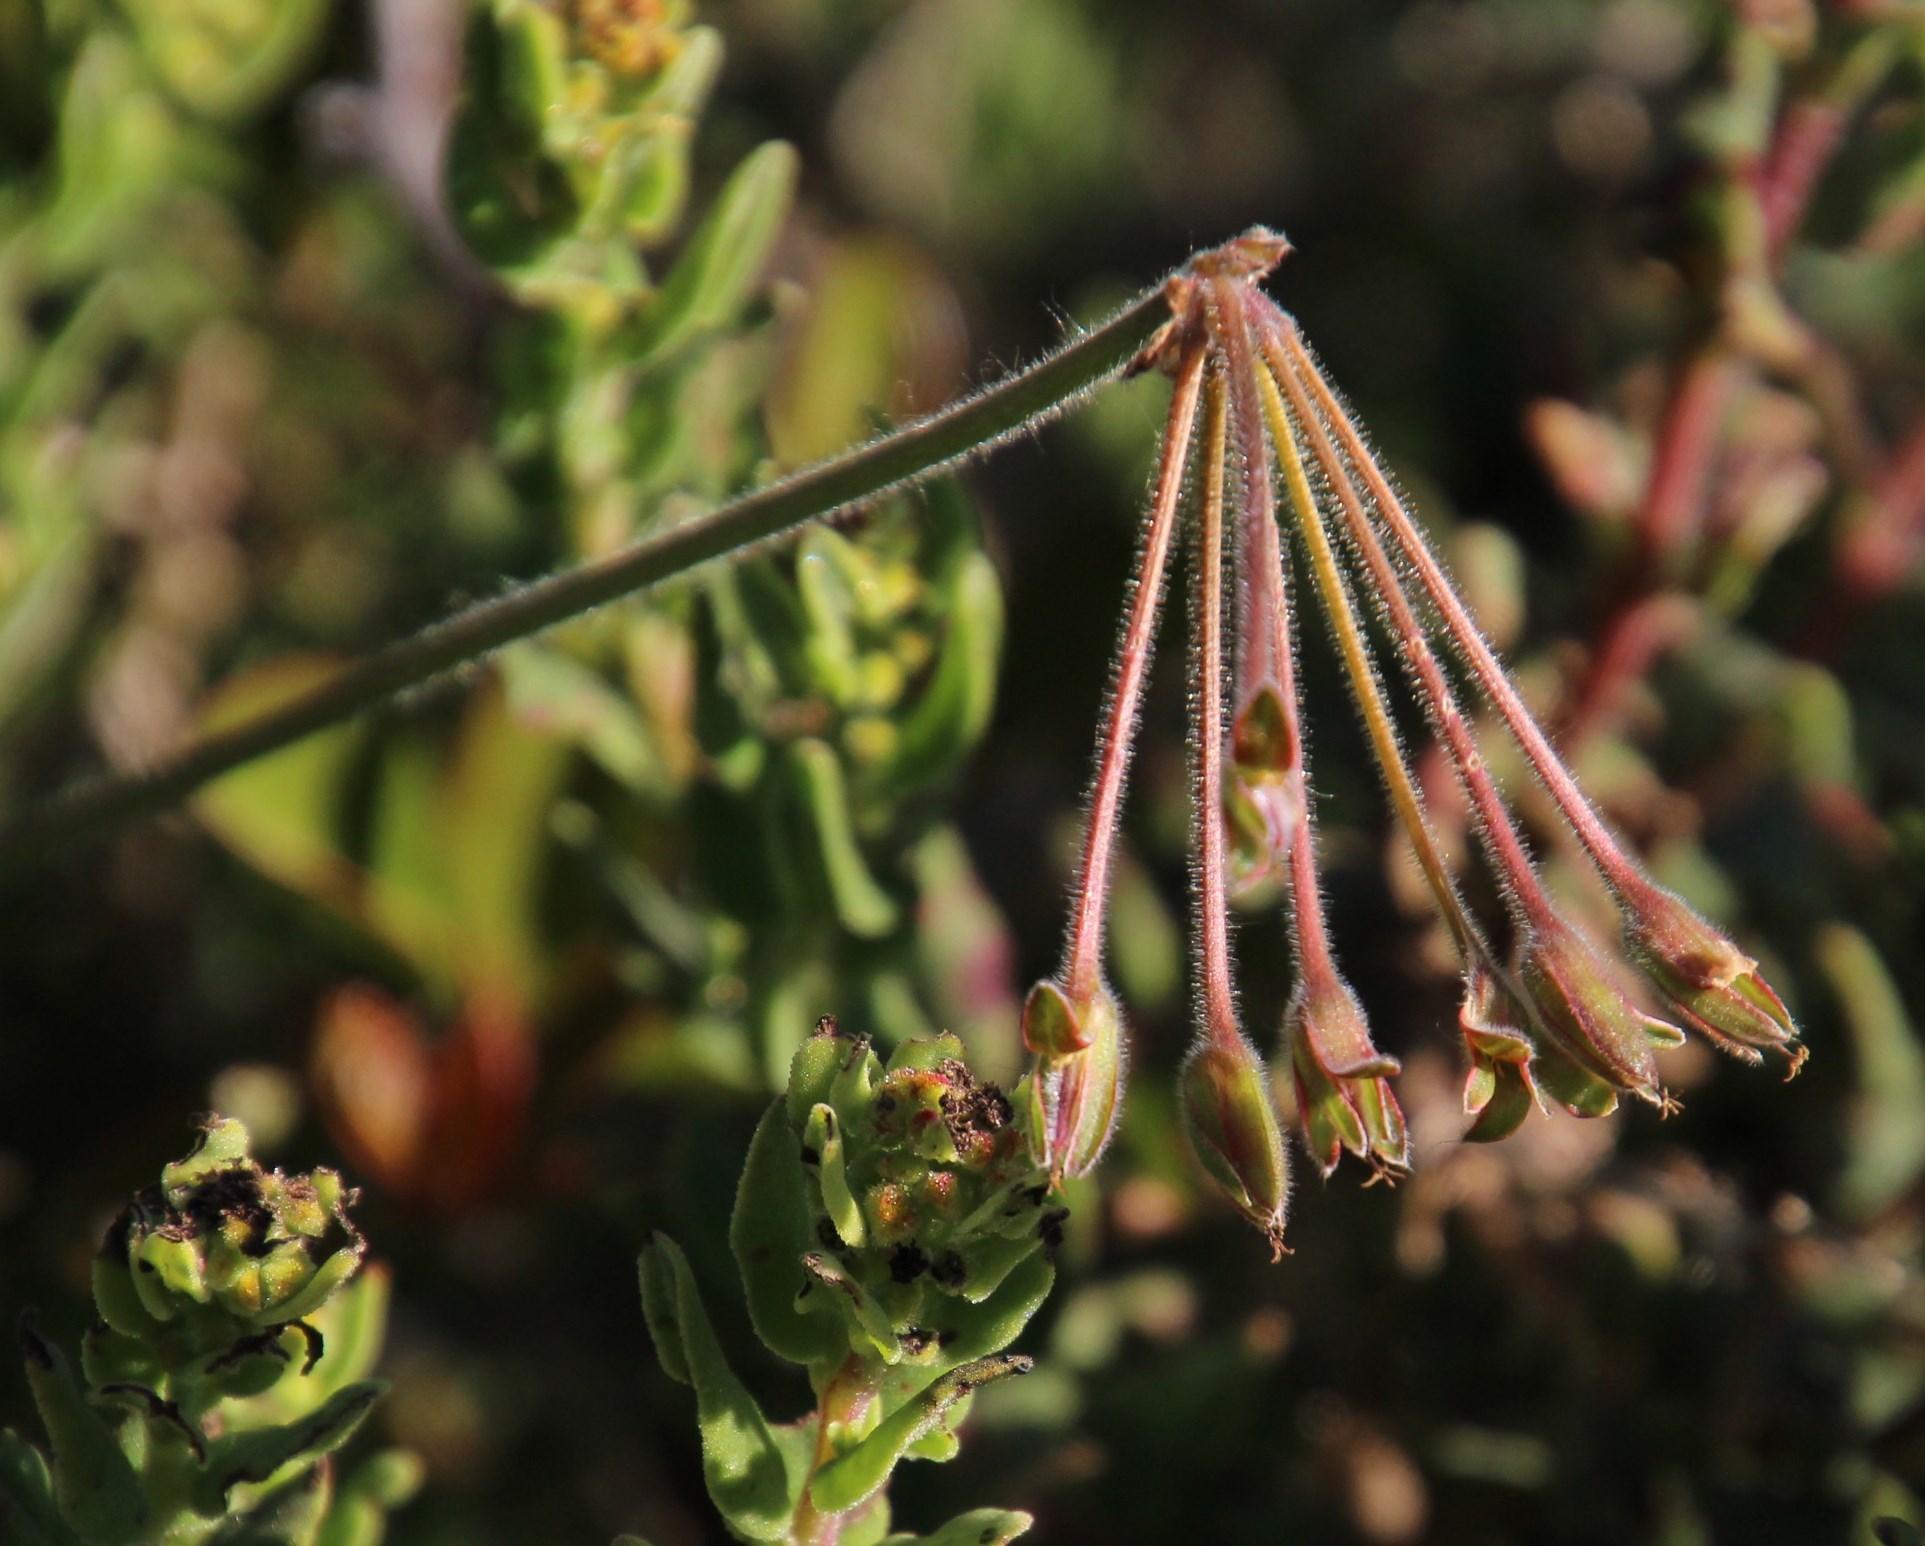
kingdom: Plantae
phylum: Tracheophyta
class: Magnoliopsida
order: Geraniales
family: Geraniaceae
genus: Pelargonium
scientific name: Pelargonium lobatum
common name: Vine-leaf pelargonium
